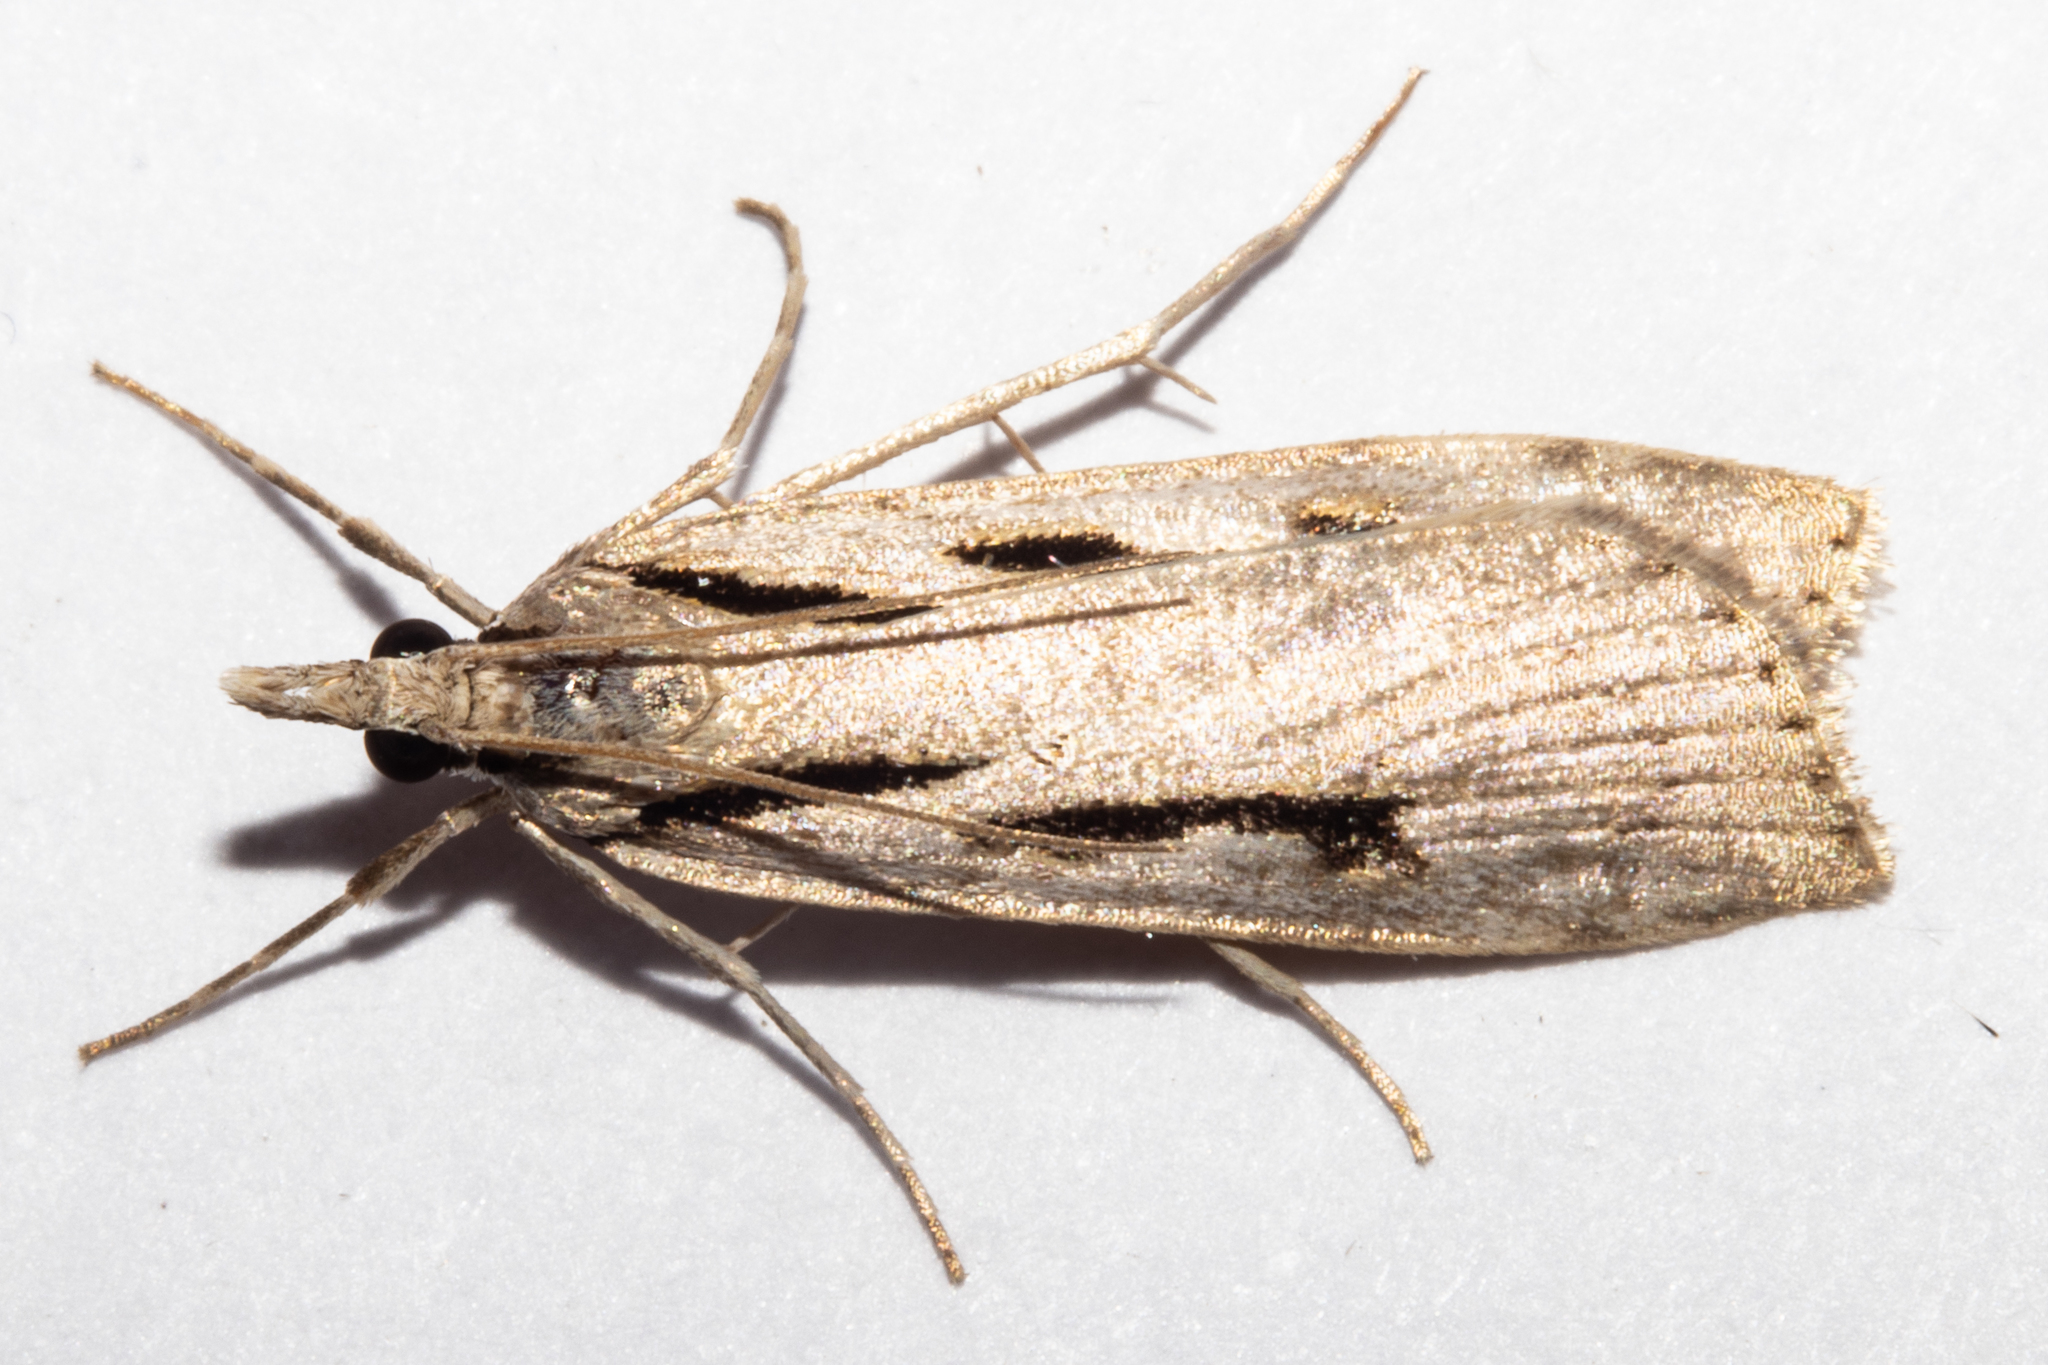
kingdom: Animalia
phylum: Arthropoda
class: Insecta
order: Lepidoptera
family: Crambidae
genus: Scoparia
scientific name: Scoparia rotuellus
